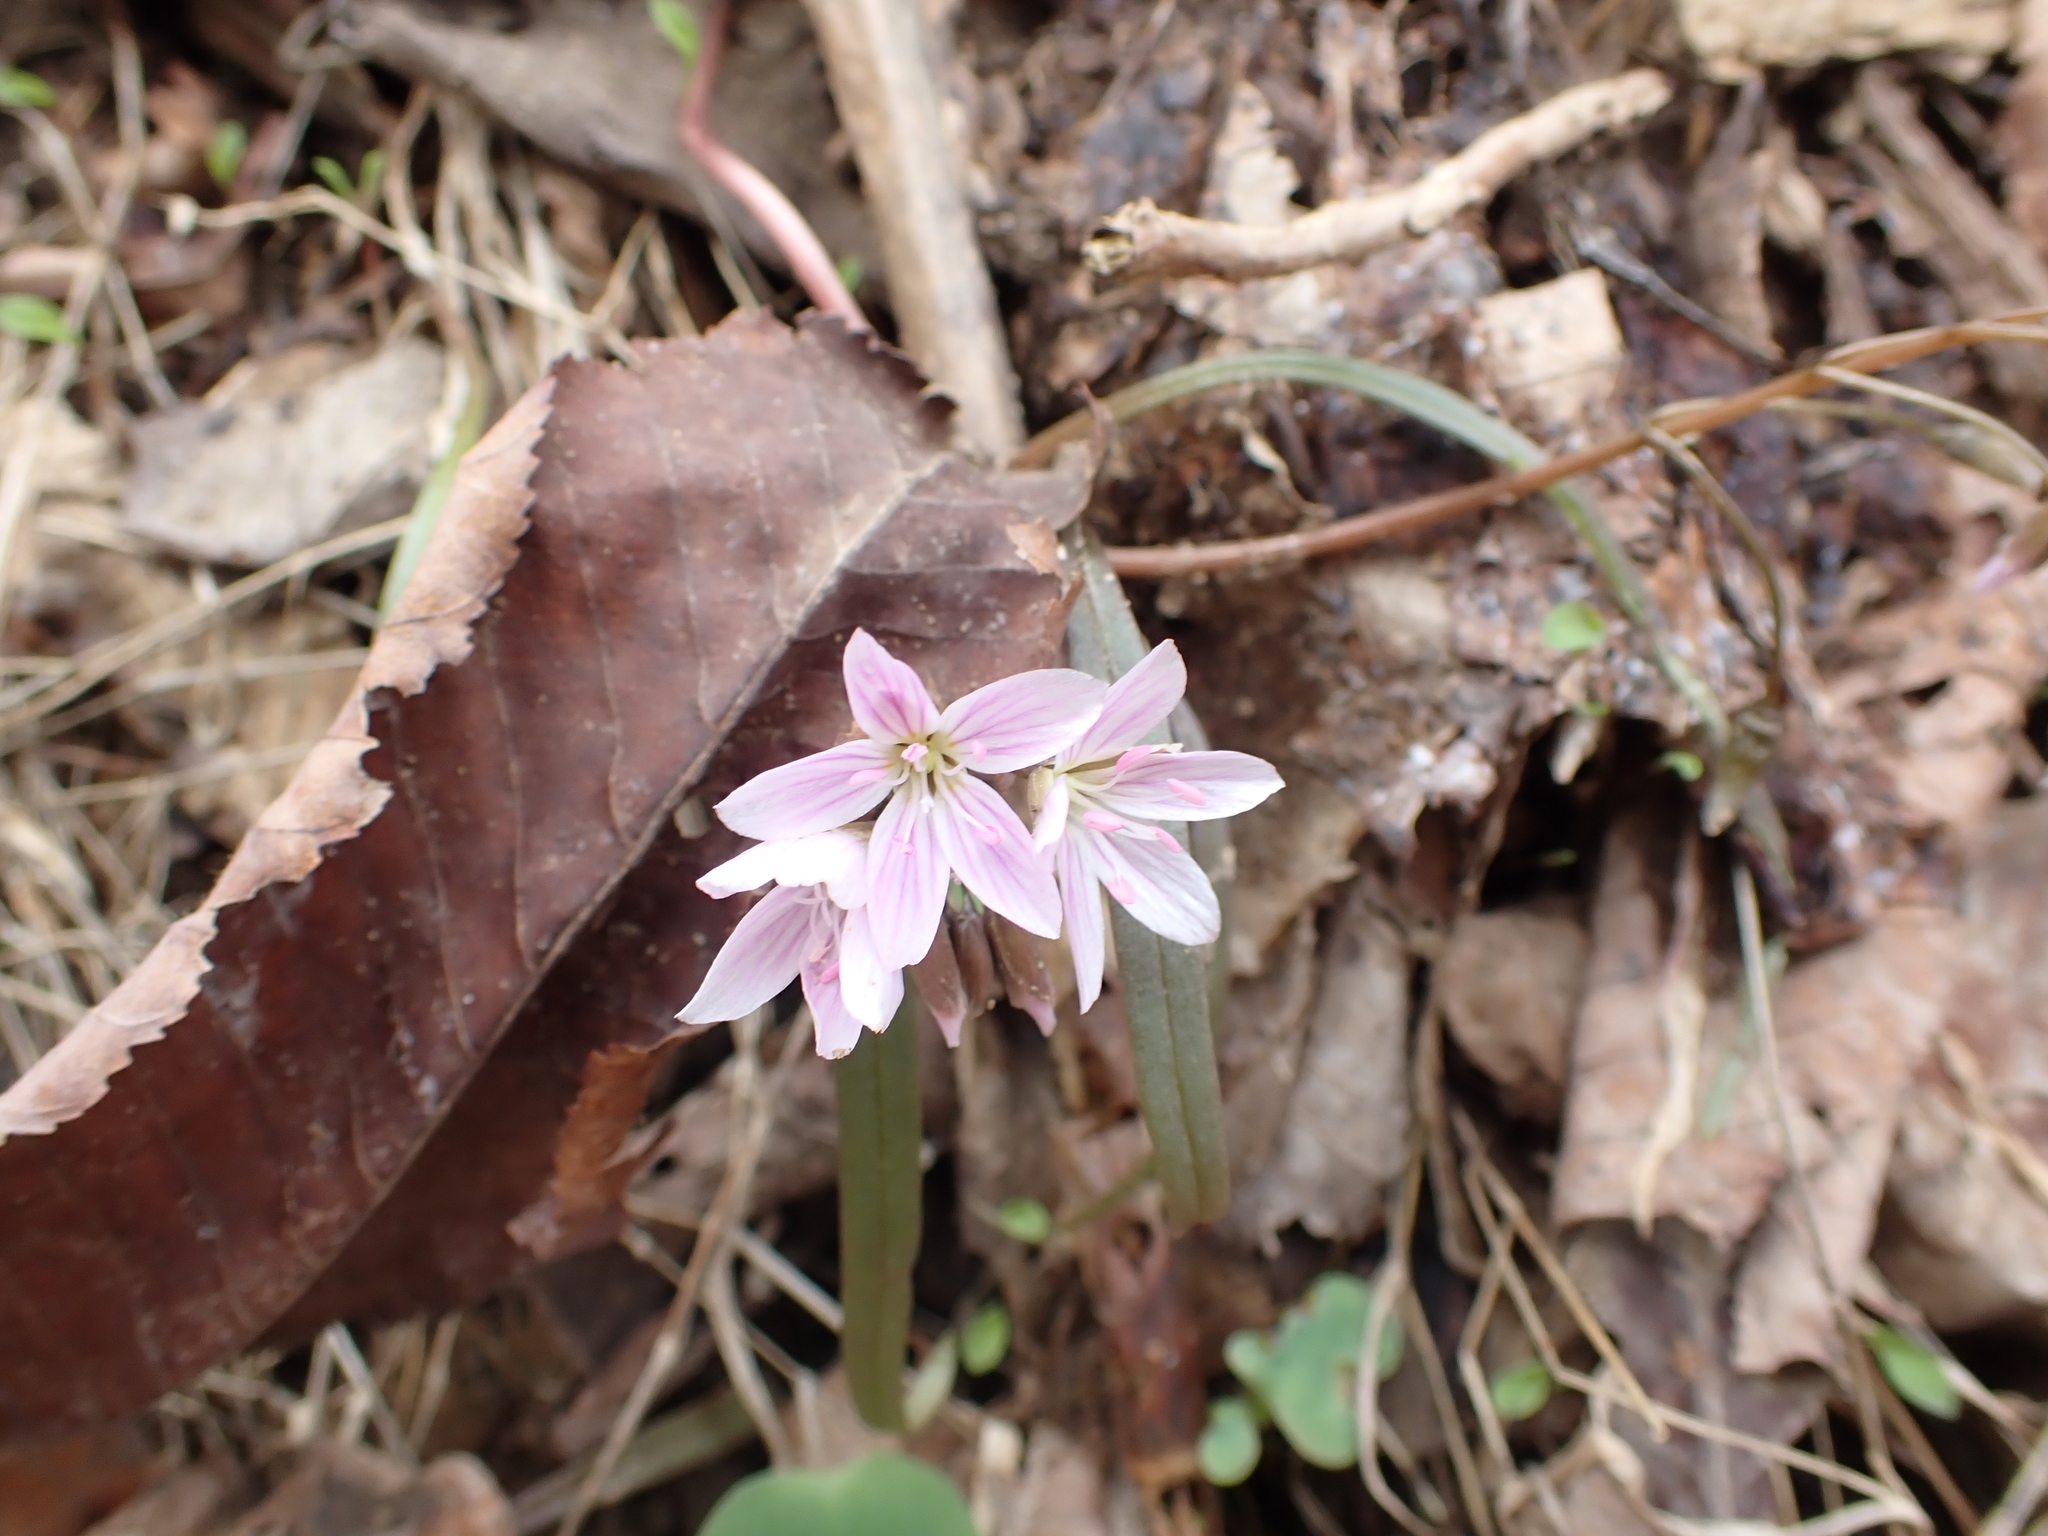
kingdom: Plantae
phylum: Tracheophyta
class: Magnoliopsida
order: Caryophyllales
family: Montiaceae
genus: Claytonia
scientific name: Claytonia virginica
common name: Virginia springbeauty
